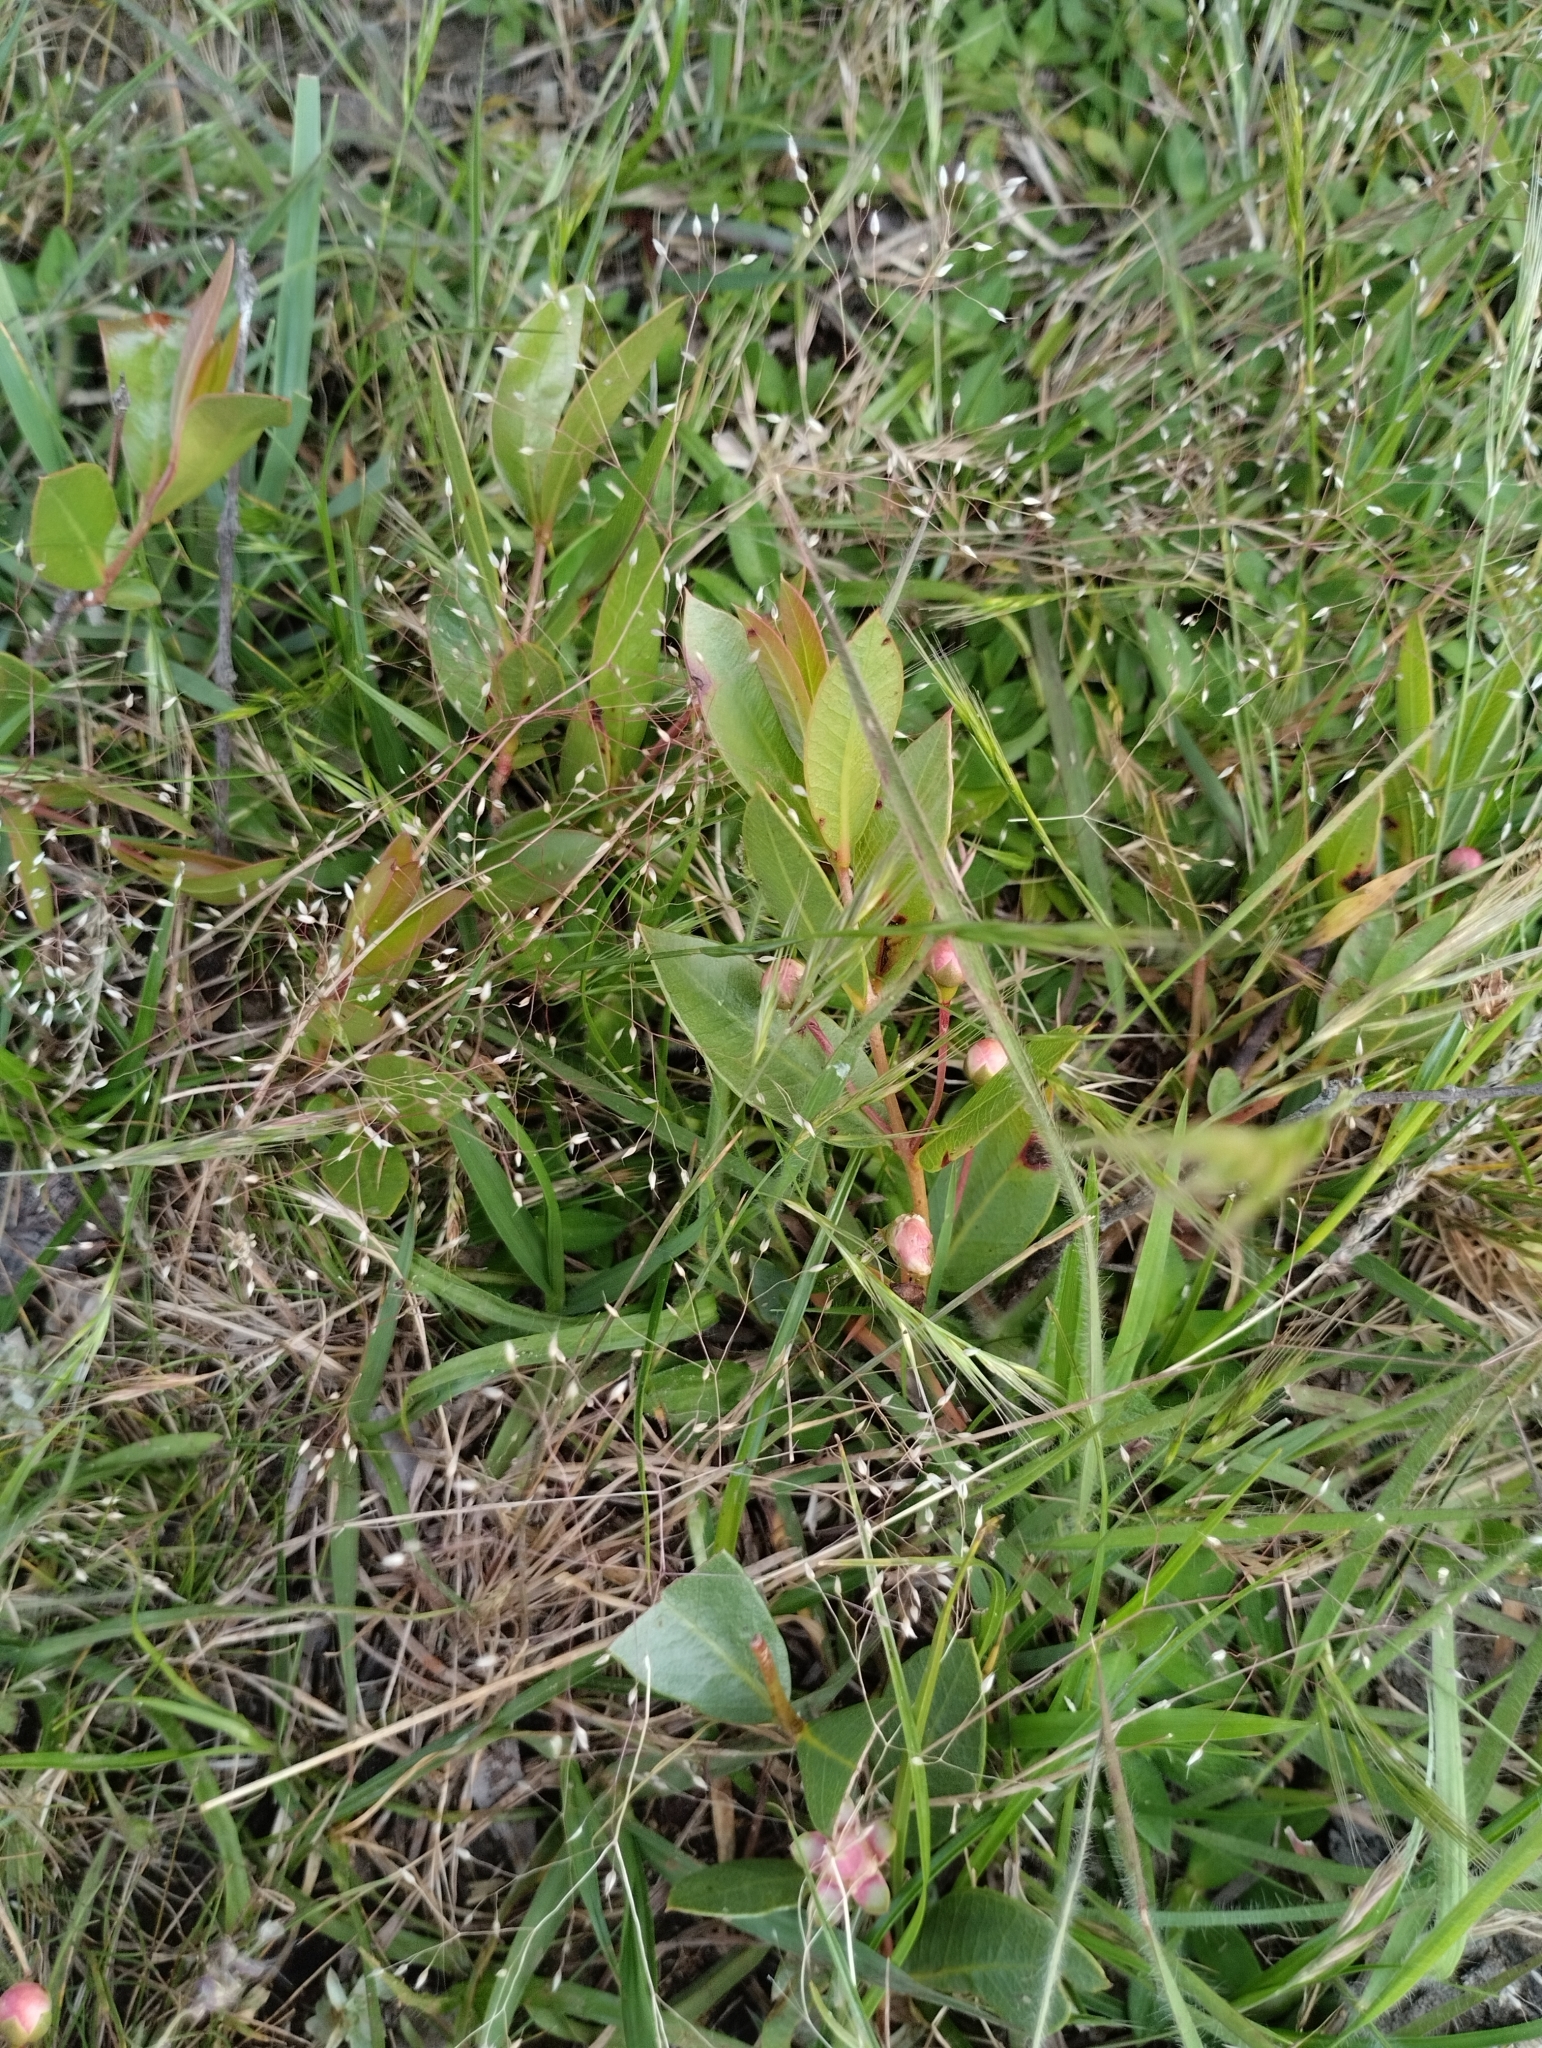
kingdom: Plantae
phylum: Tracheophyta
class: Magnoliopsida
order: Myrtales
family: Myrtaceae
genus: Psidium
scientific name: Psidium salutare
